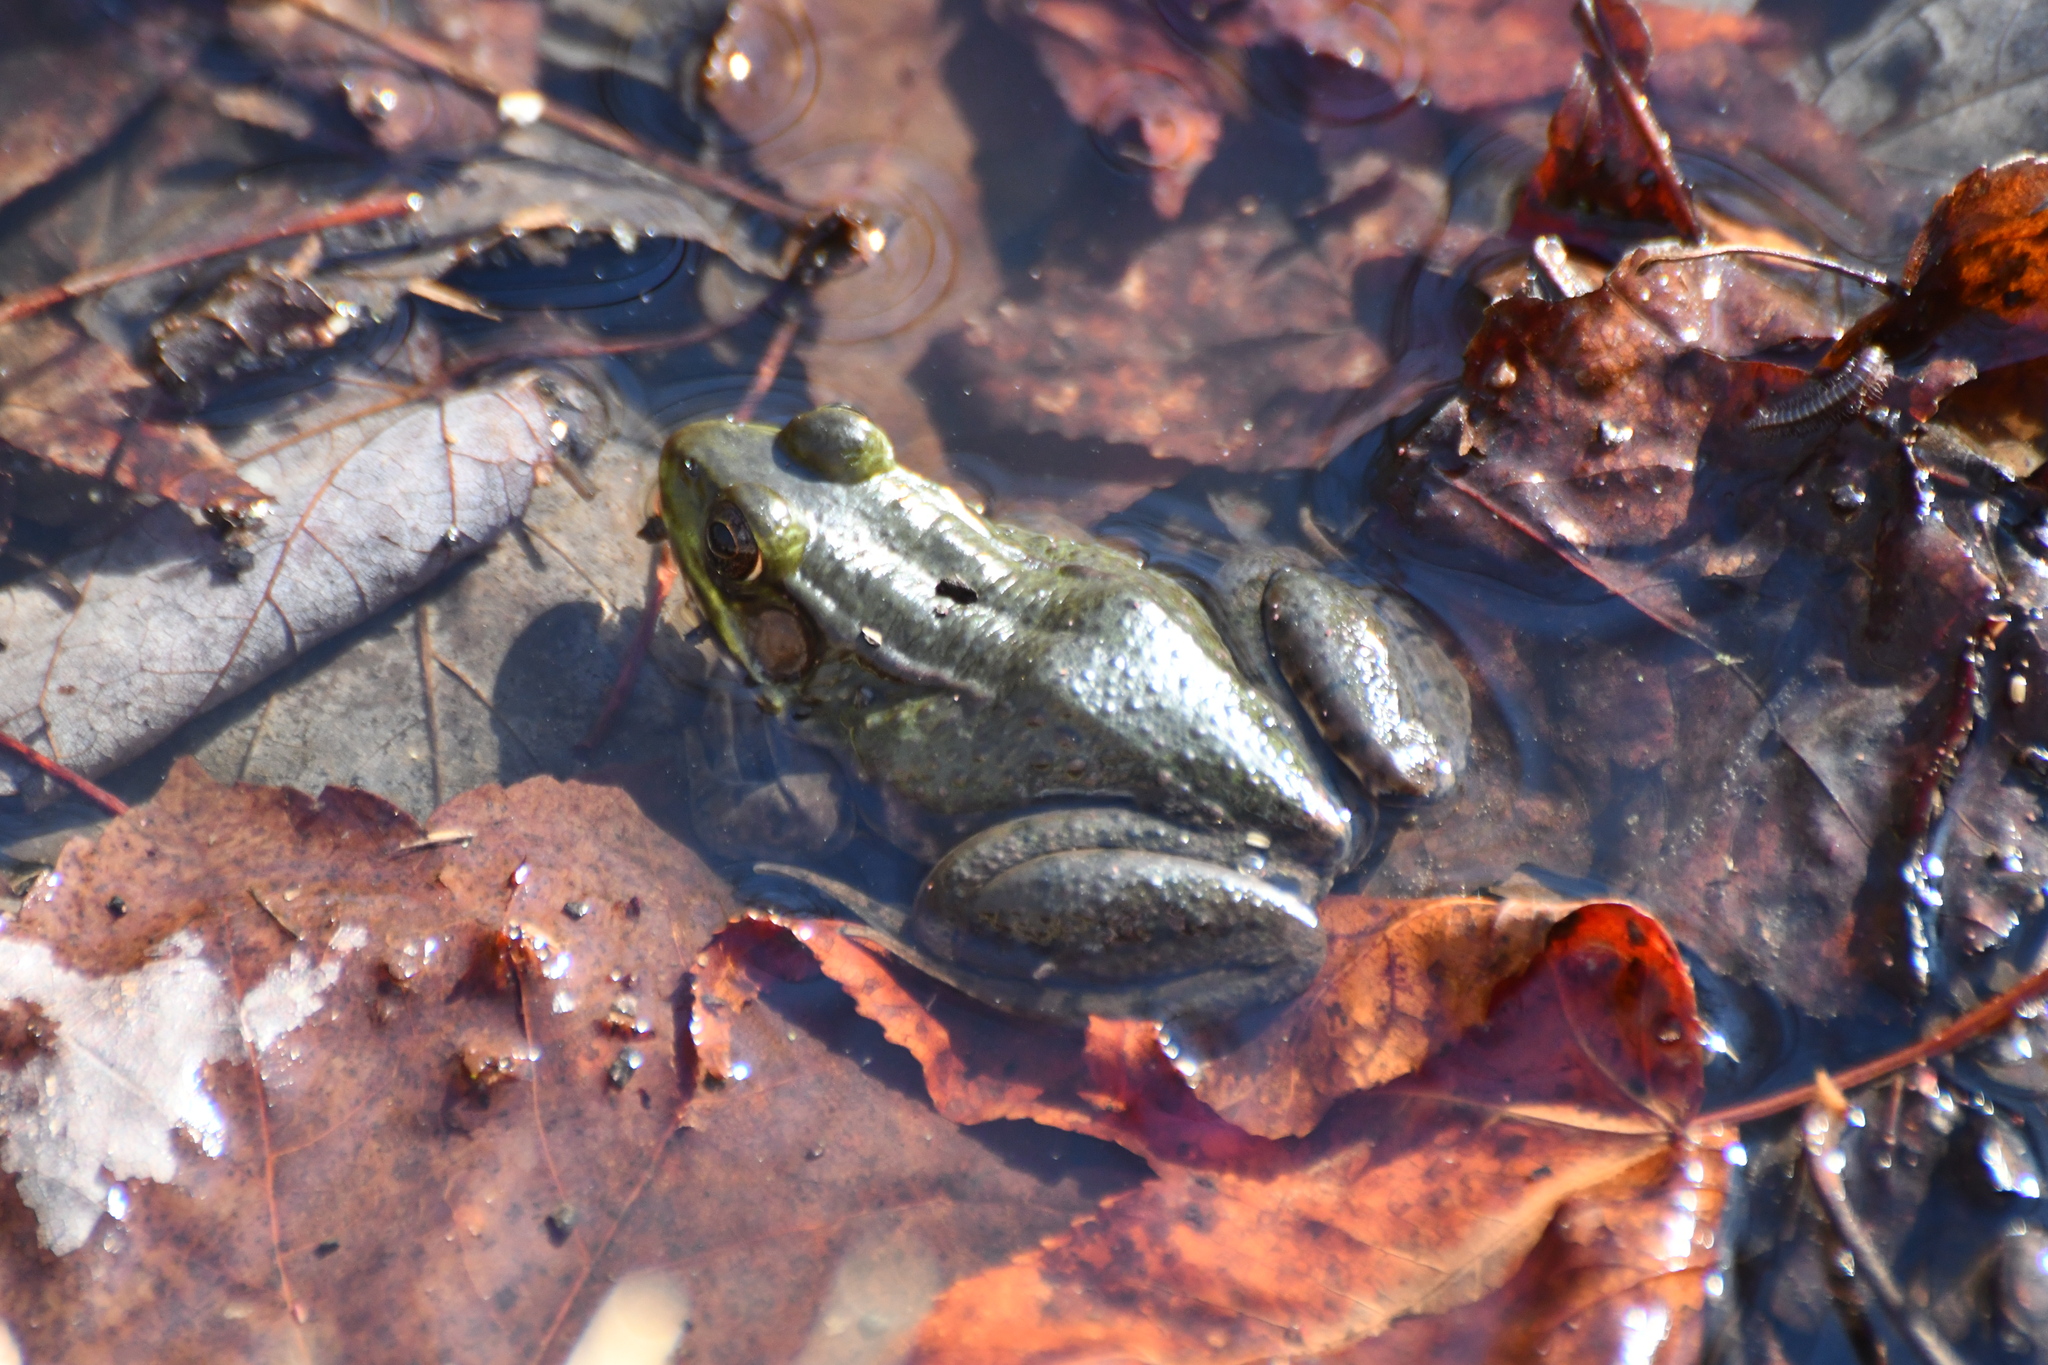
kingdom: Animalia
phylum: Chordata
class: Amphibia
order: Anura
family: Ranidae
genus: Lithobates
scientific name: Lithobates clamitans
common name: Green frog
